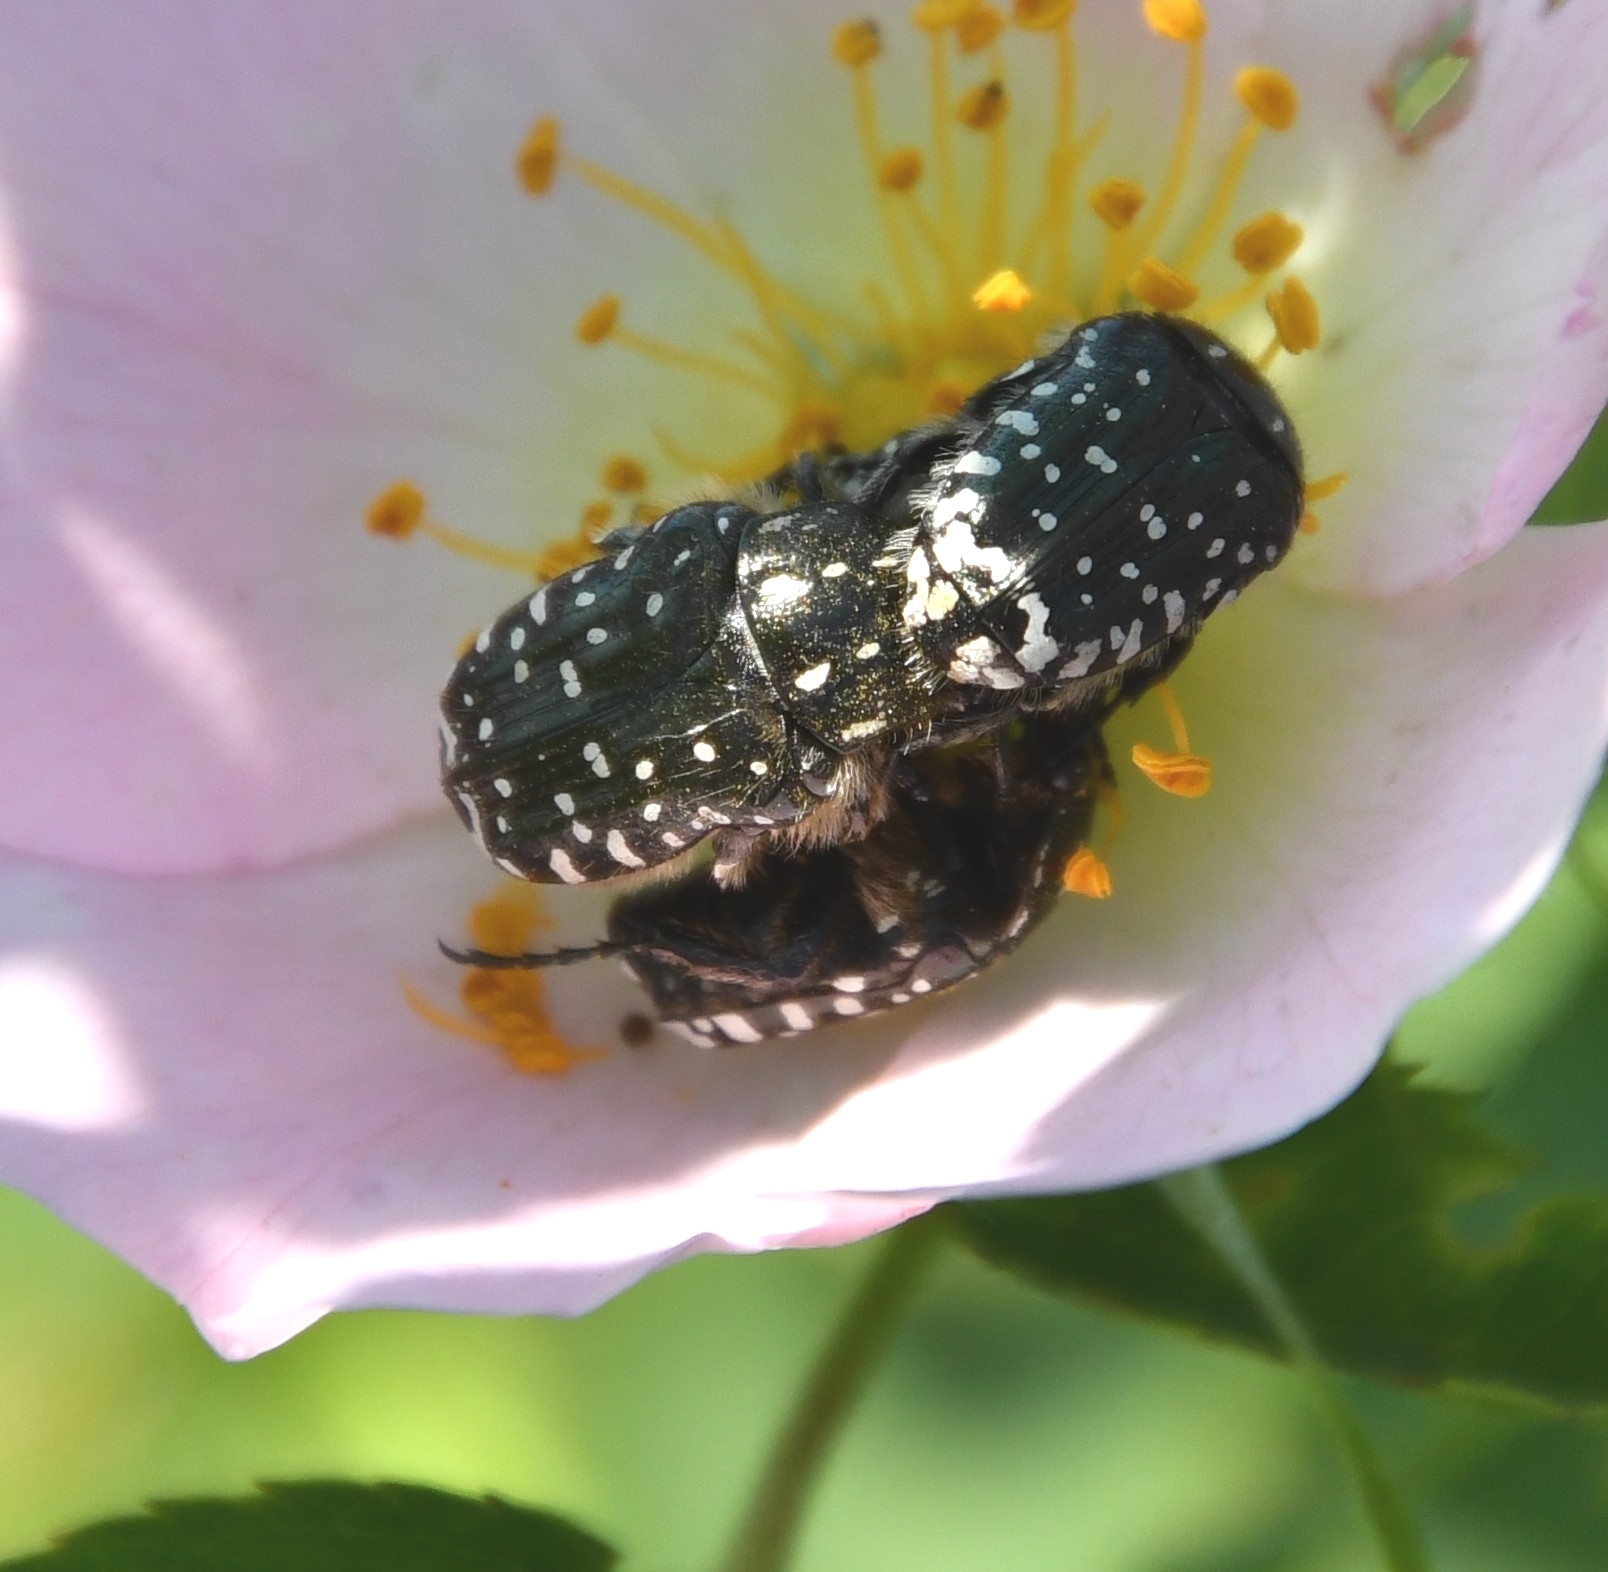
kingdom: Animalia
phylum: Arthropoda
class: Insecta
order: Coleoptera
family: Scarabaeidae
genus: Oxythyrea
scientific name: Oxythyrea funesta
